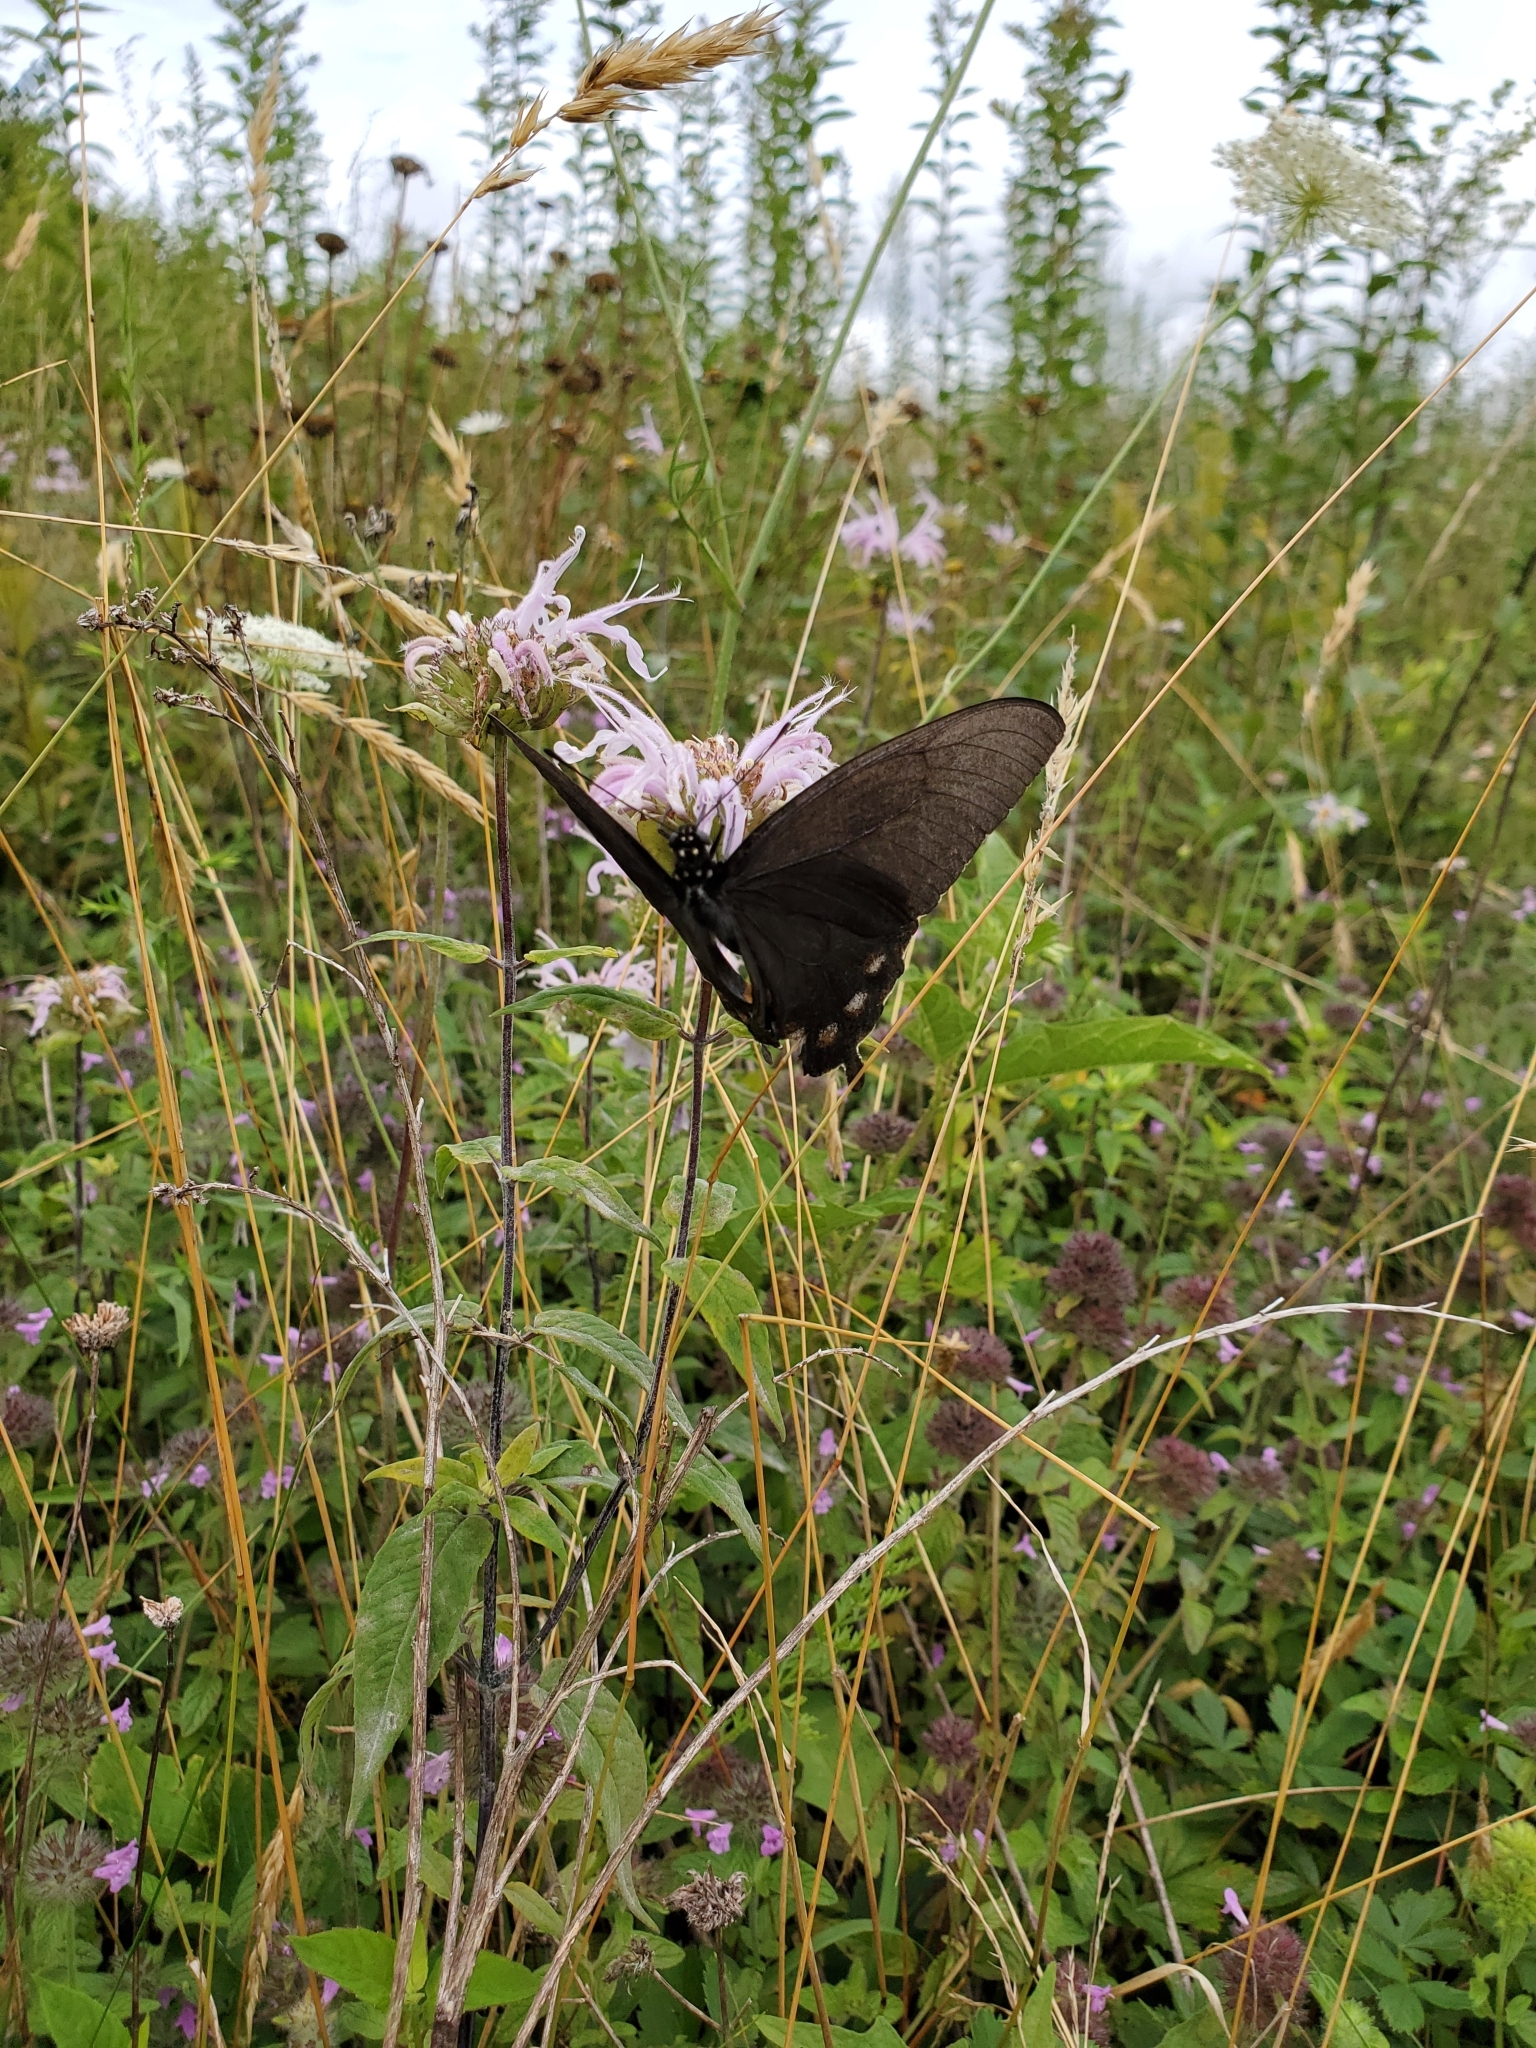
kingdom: Animalia
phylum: Arthropoda
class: Insecta
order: Lepidoptera
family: Papilionidae
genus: Battus
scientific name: Battus philenor
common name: Pipevine swallowtail
